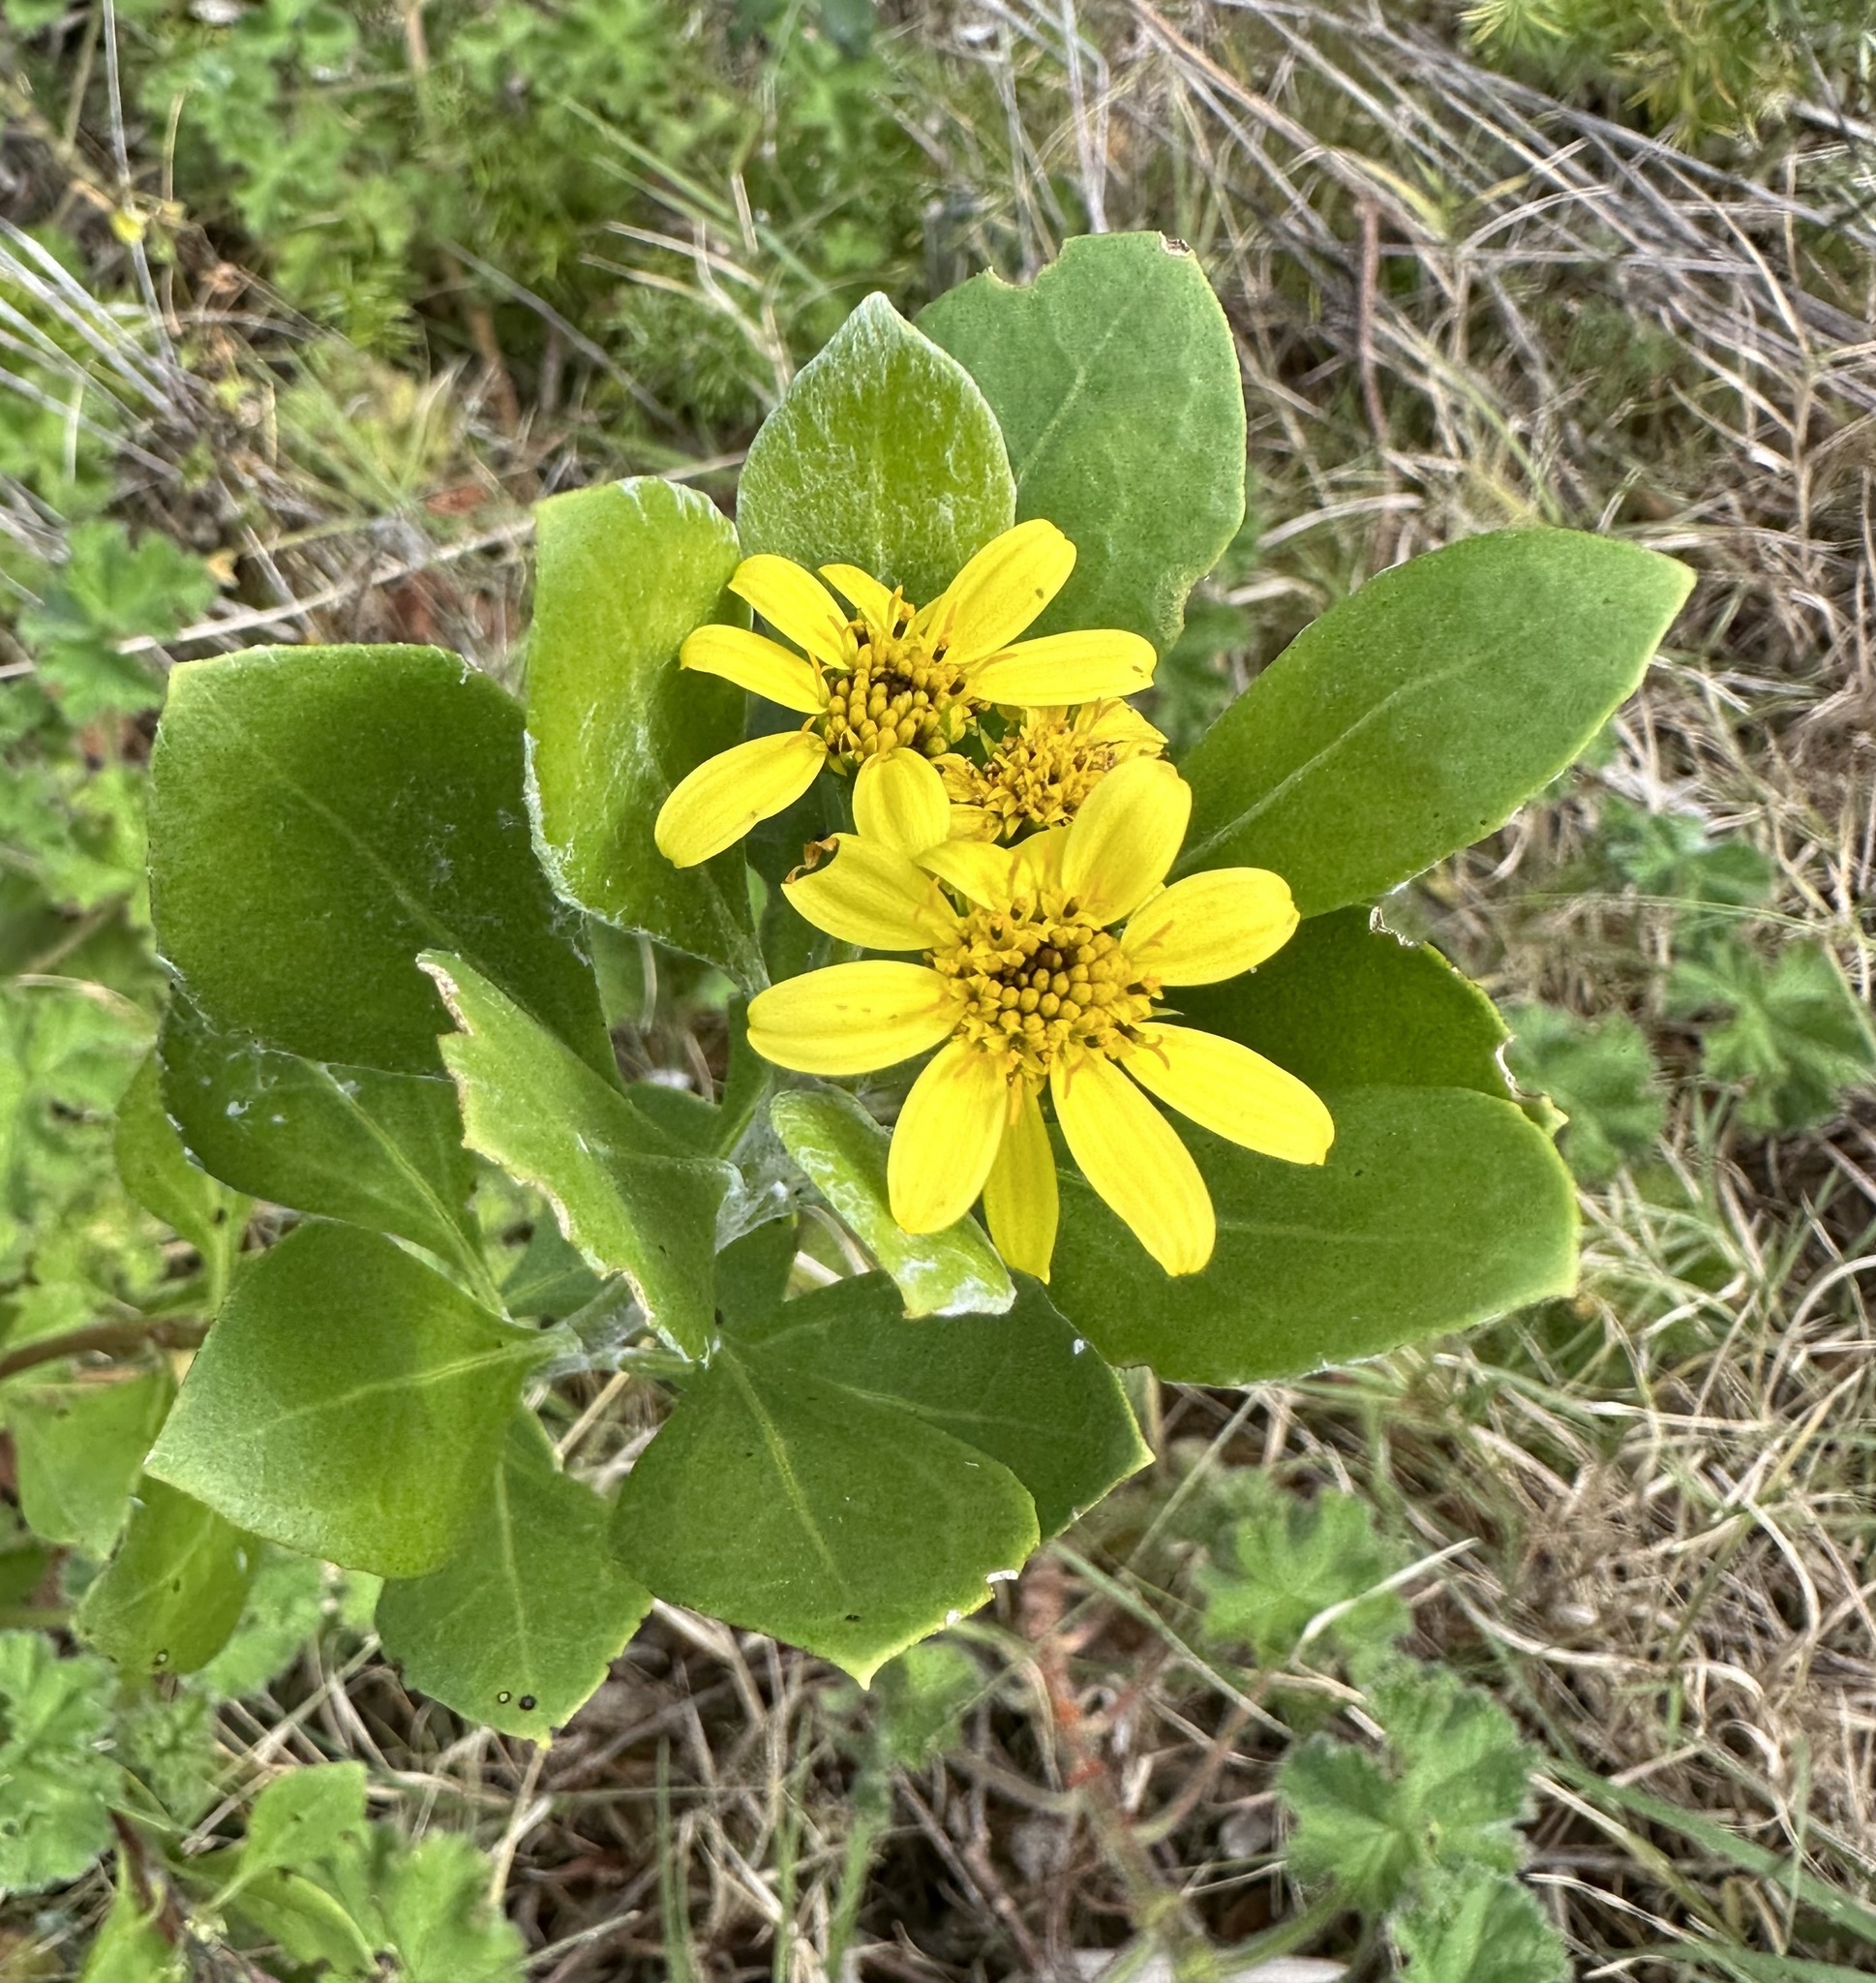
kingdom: Plantae
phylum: Tracheophyta
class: Magnoliopsida
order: Asterales
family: Asteraceae
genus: Osteospermum
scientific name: Osteospermum moniliferum
